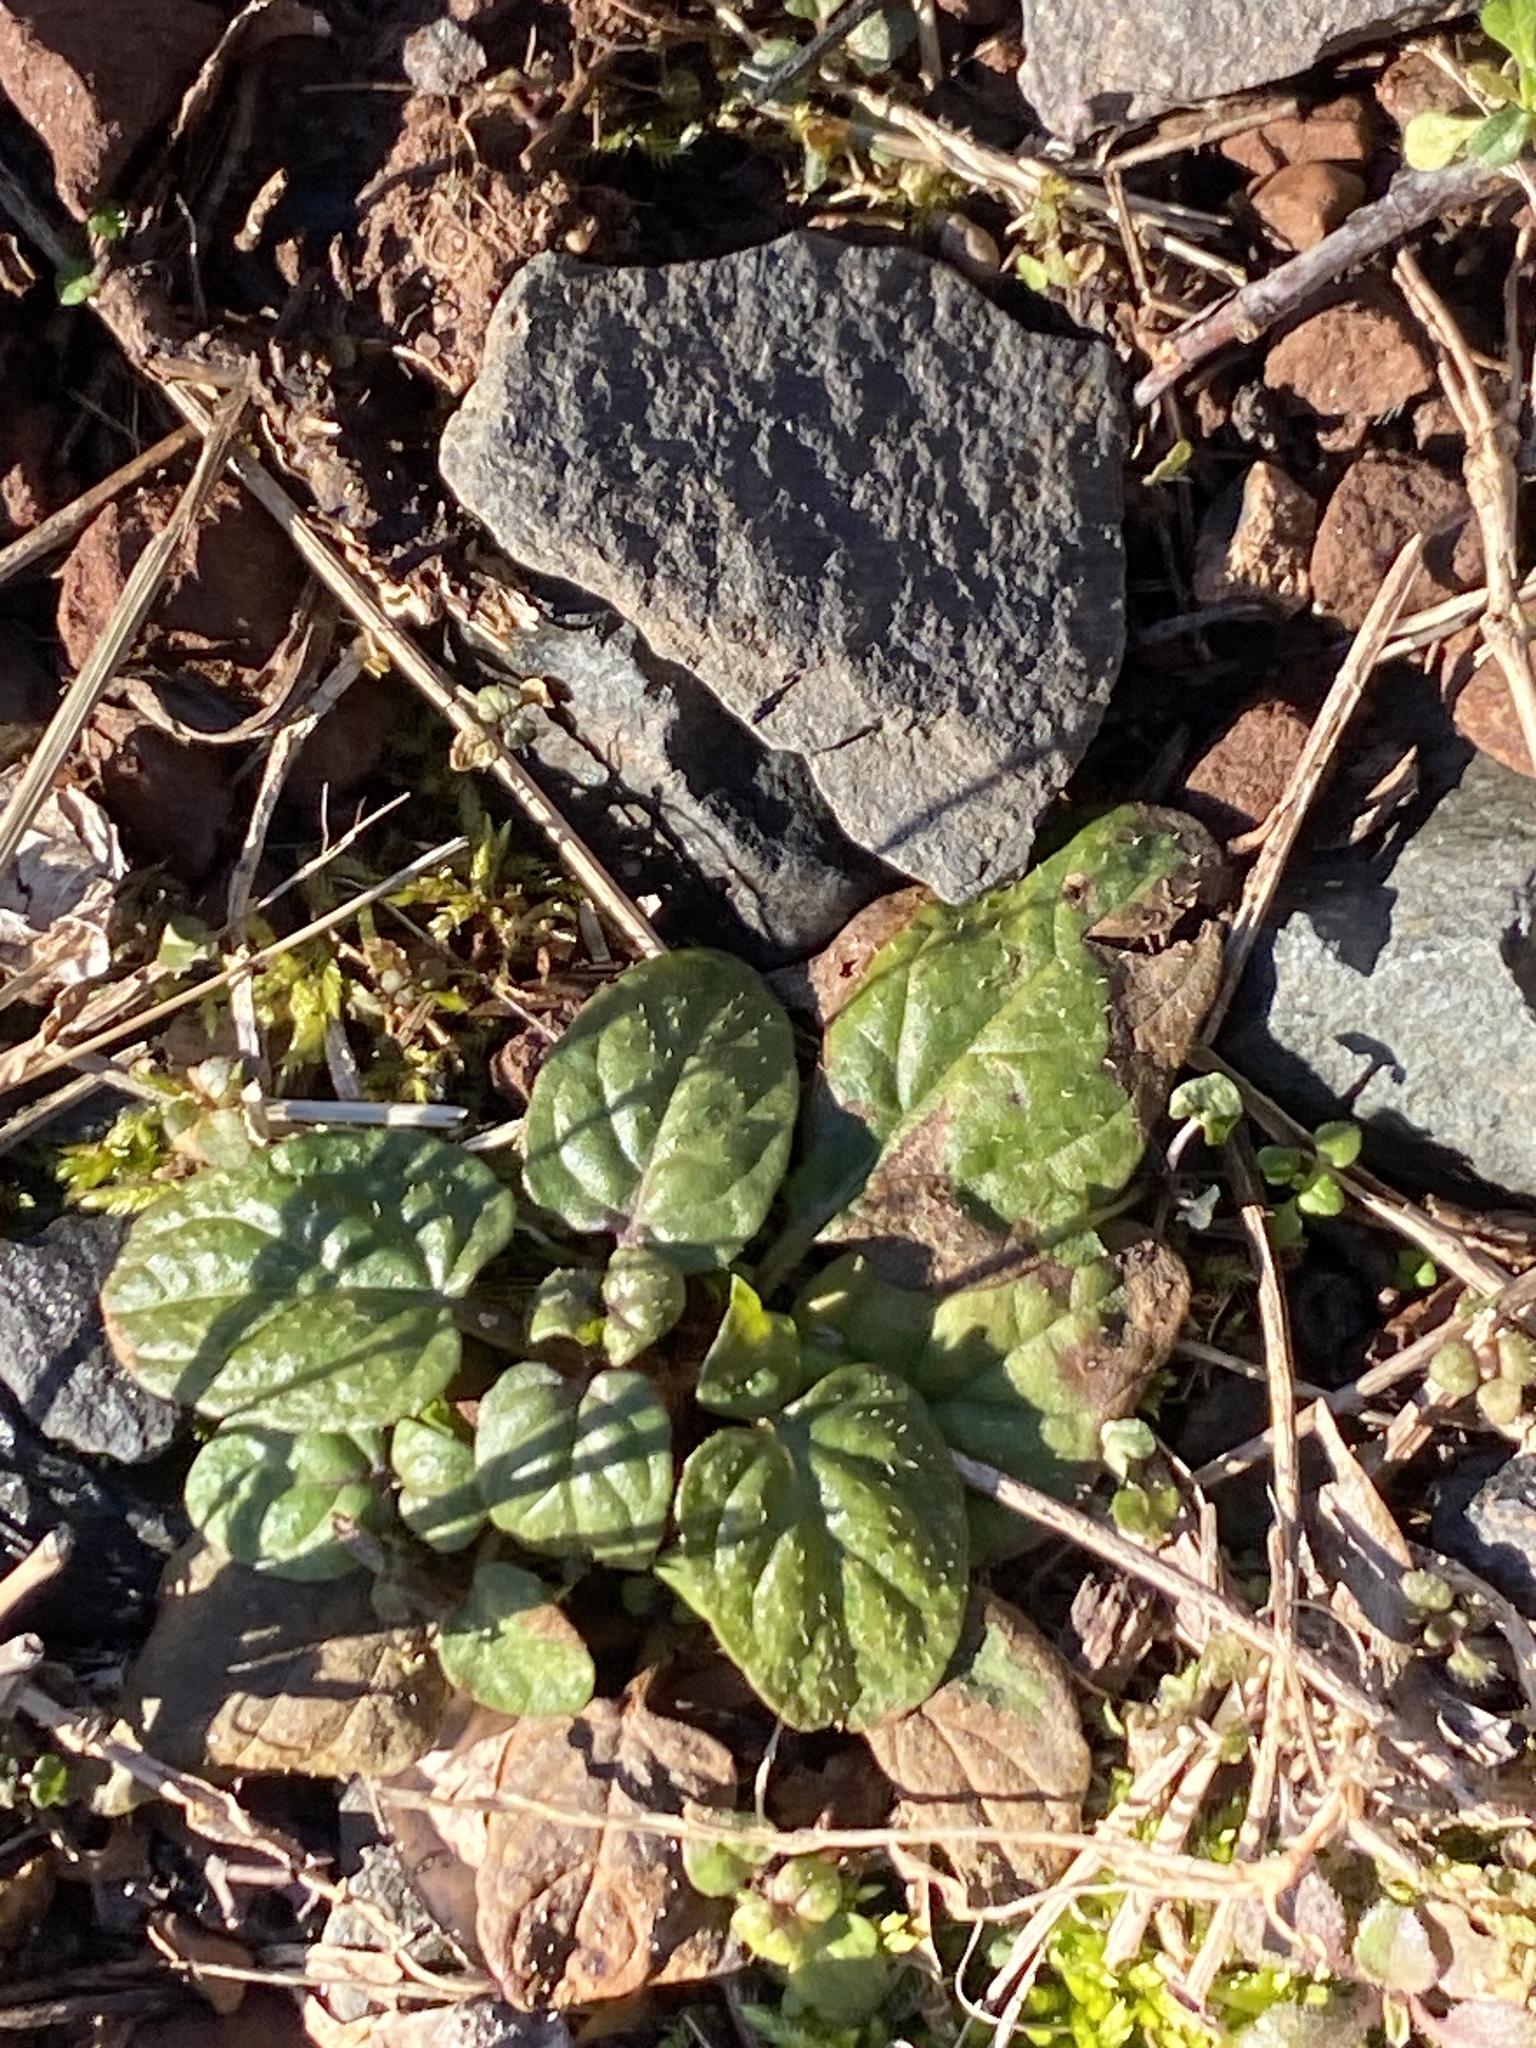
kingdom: Plantae
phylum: Tracheophyta
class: Magnoliopsida
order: Lamiales
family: Lamiaceae
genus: Prunella
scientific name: Prunella vulgaris
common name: Heal-all
